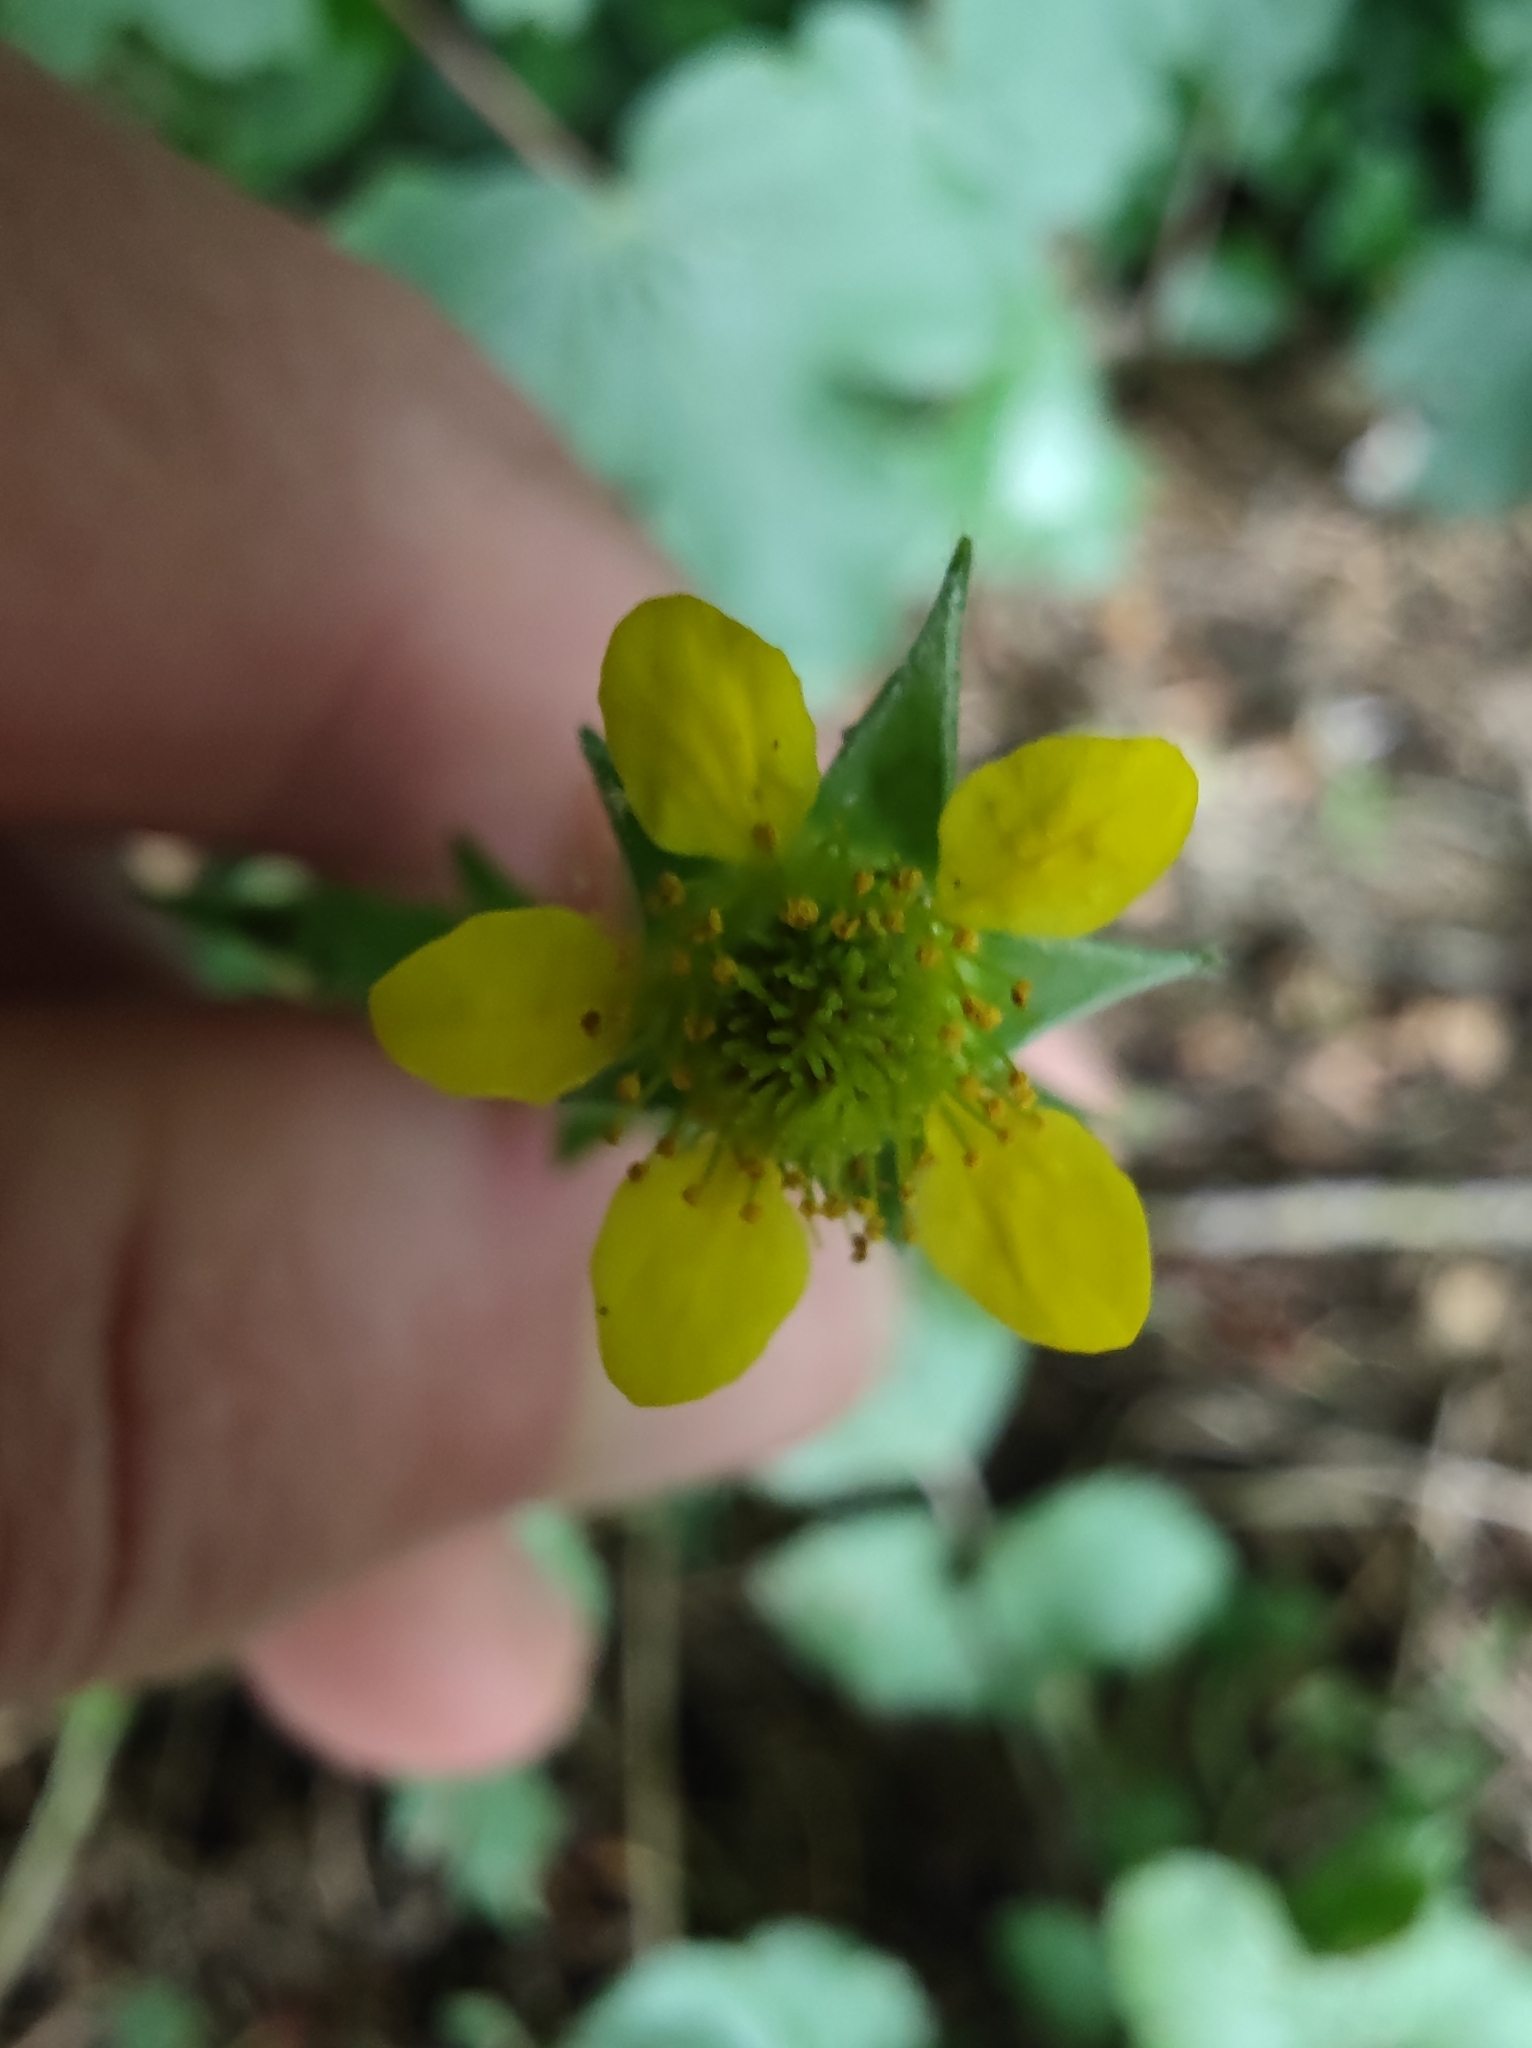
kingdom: Plantae
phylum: Tracheophyta
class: Magnoliopsida
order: Rosales
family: Rosaceae
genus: Geum
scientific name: Geum urbanum
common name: Wood avens
